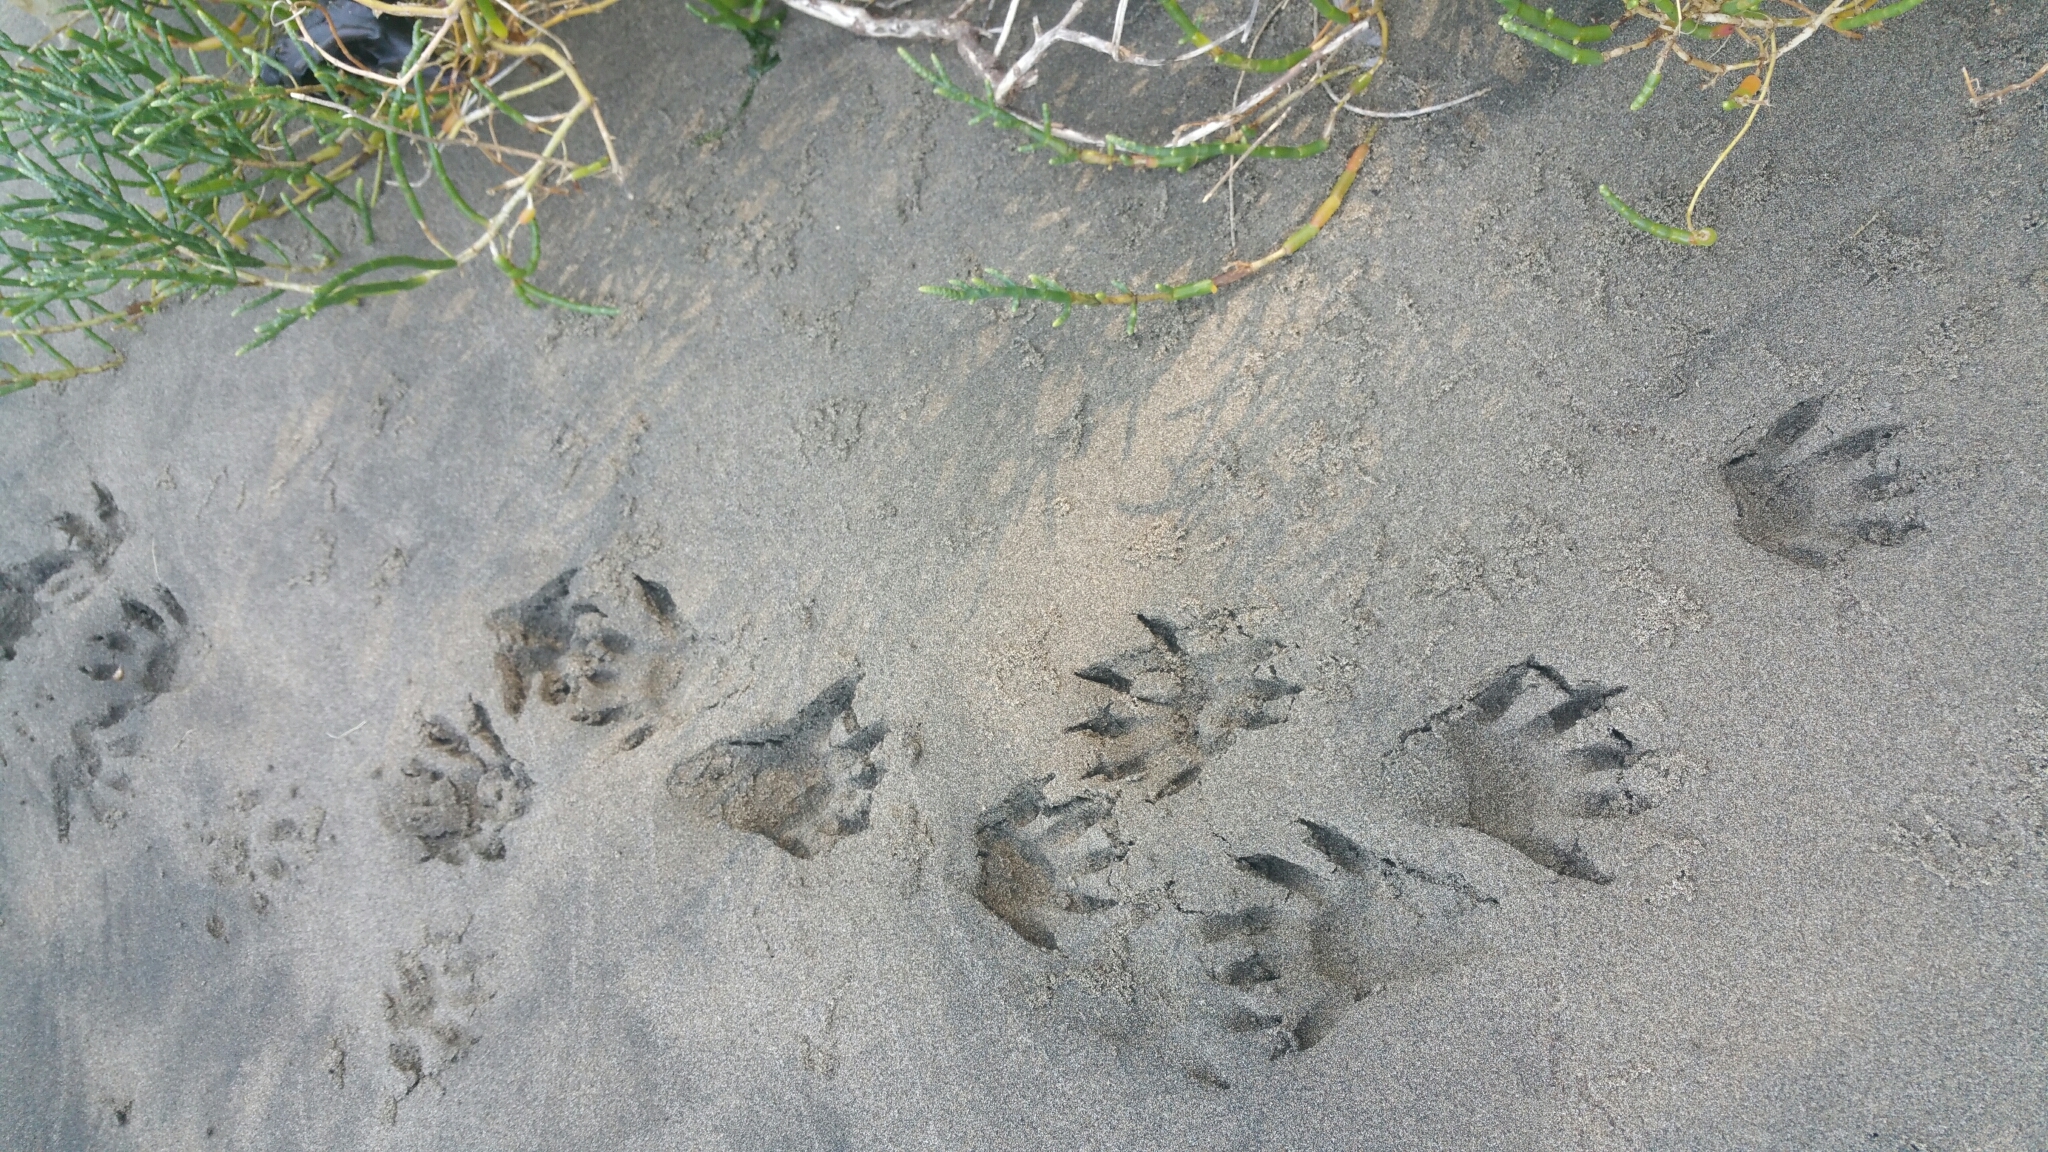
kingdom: Animalia
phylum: Chordata
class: Mammalia
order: Carnivora
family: Procyonidae
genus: Procyon
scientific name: Procyon lotor
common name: Raccoon
